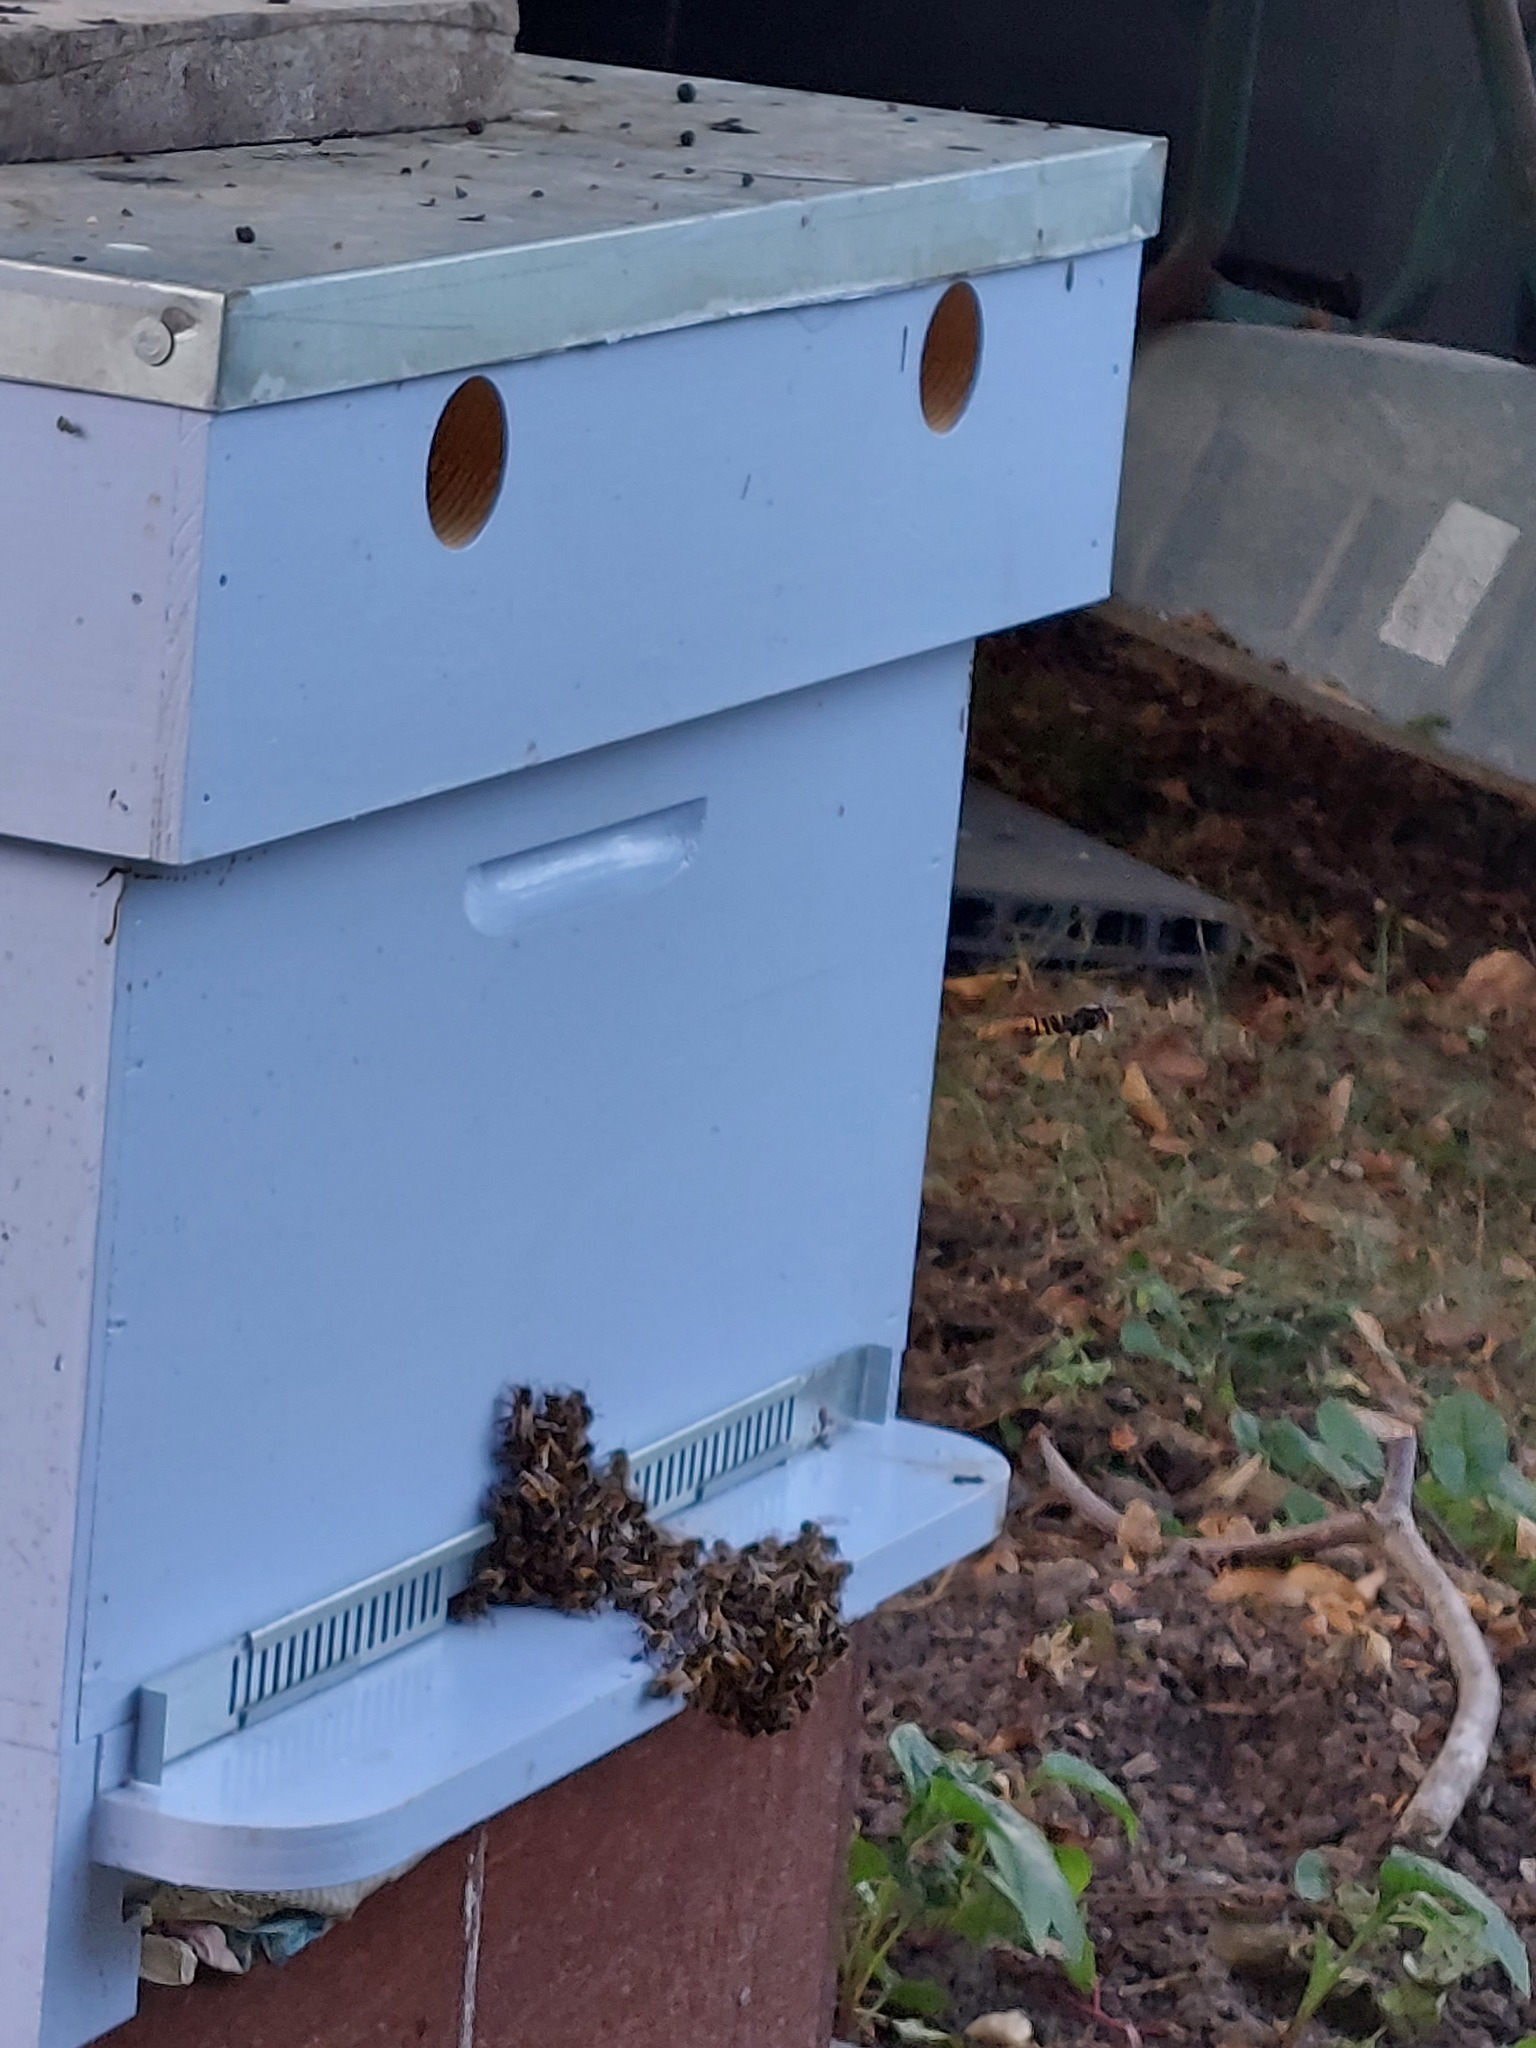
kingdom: Animalia
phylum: Arthropoda
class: Insecta
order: Hymenoptera
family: Vespidae
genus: Vespa
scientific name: Vespa velutina
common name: Asian hornet
